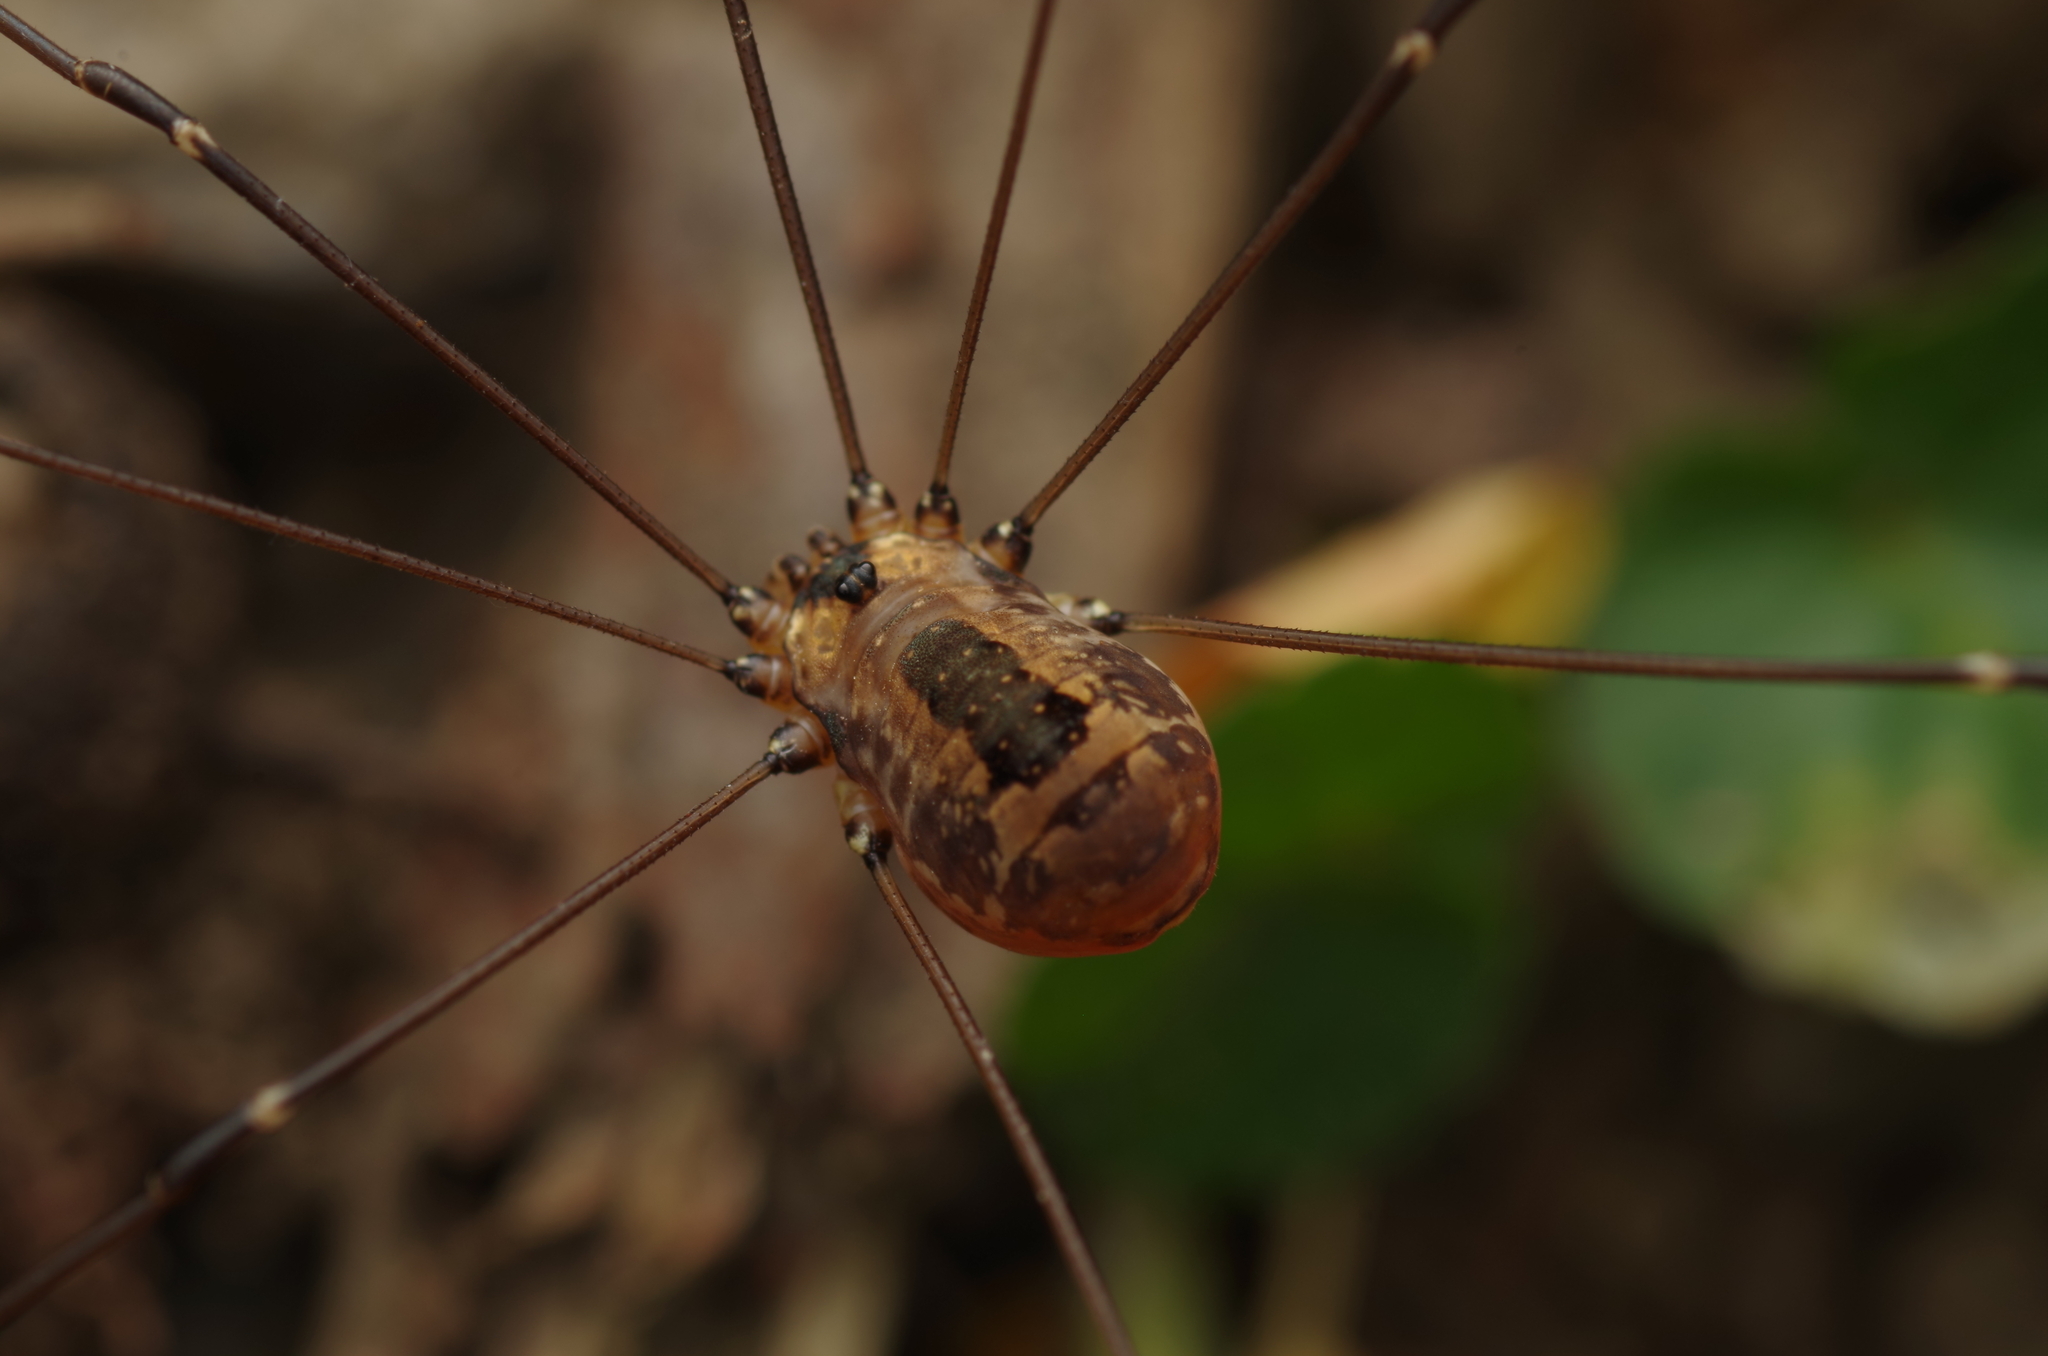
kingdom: Animalia
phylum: Arthropoda
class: Arachnida
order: Opiliones
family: Sclerosomatidae
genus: Leiobunum
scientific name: Leiobunum rotundum
